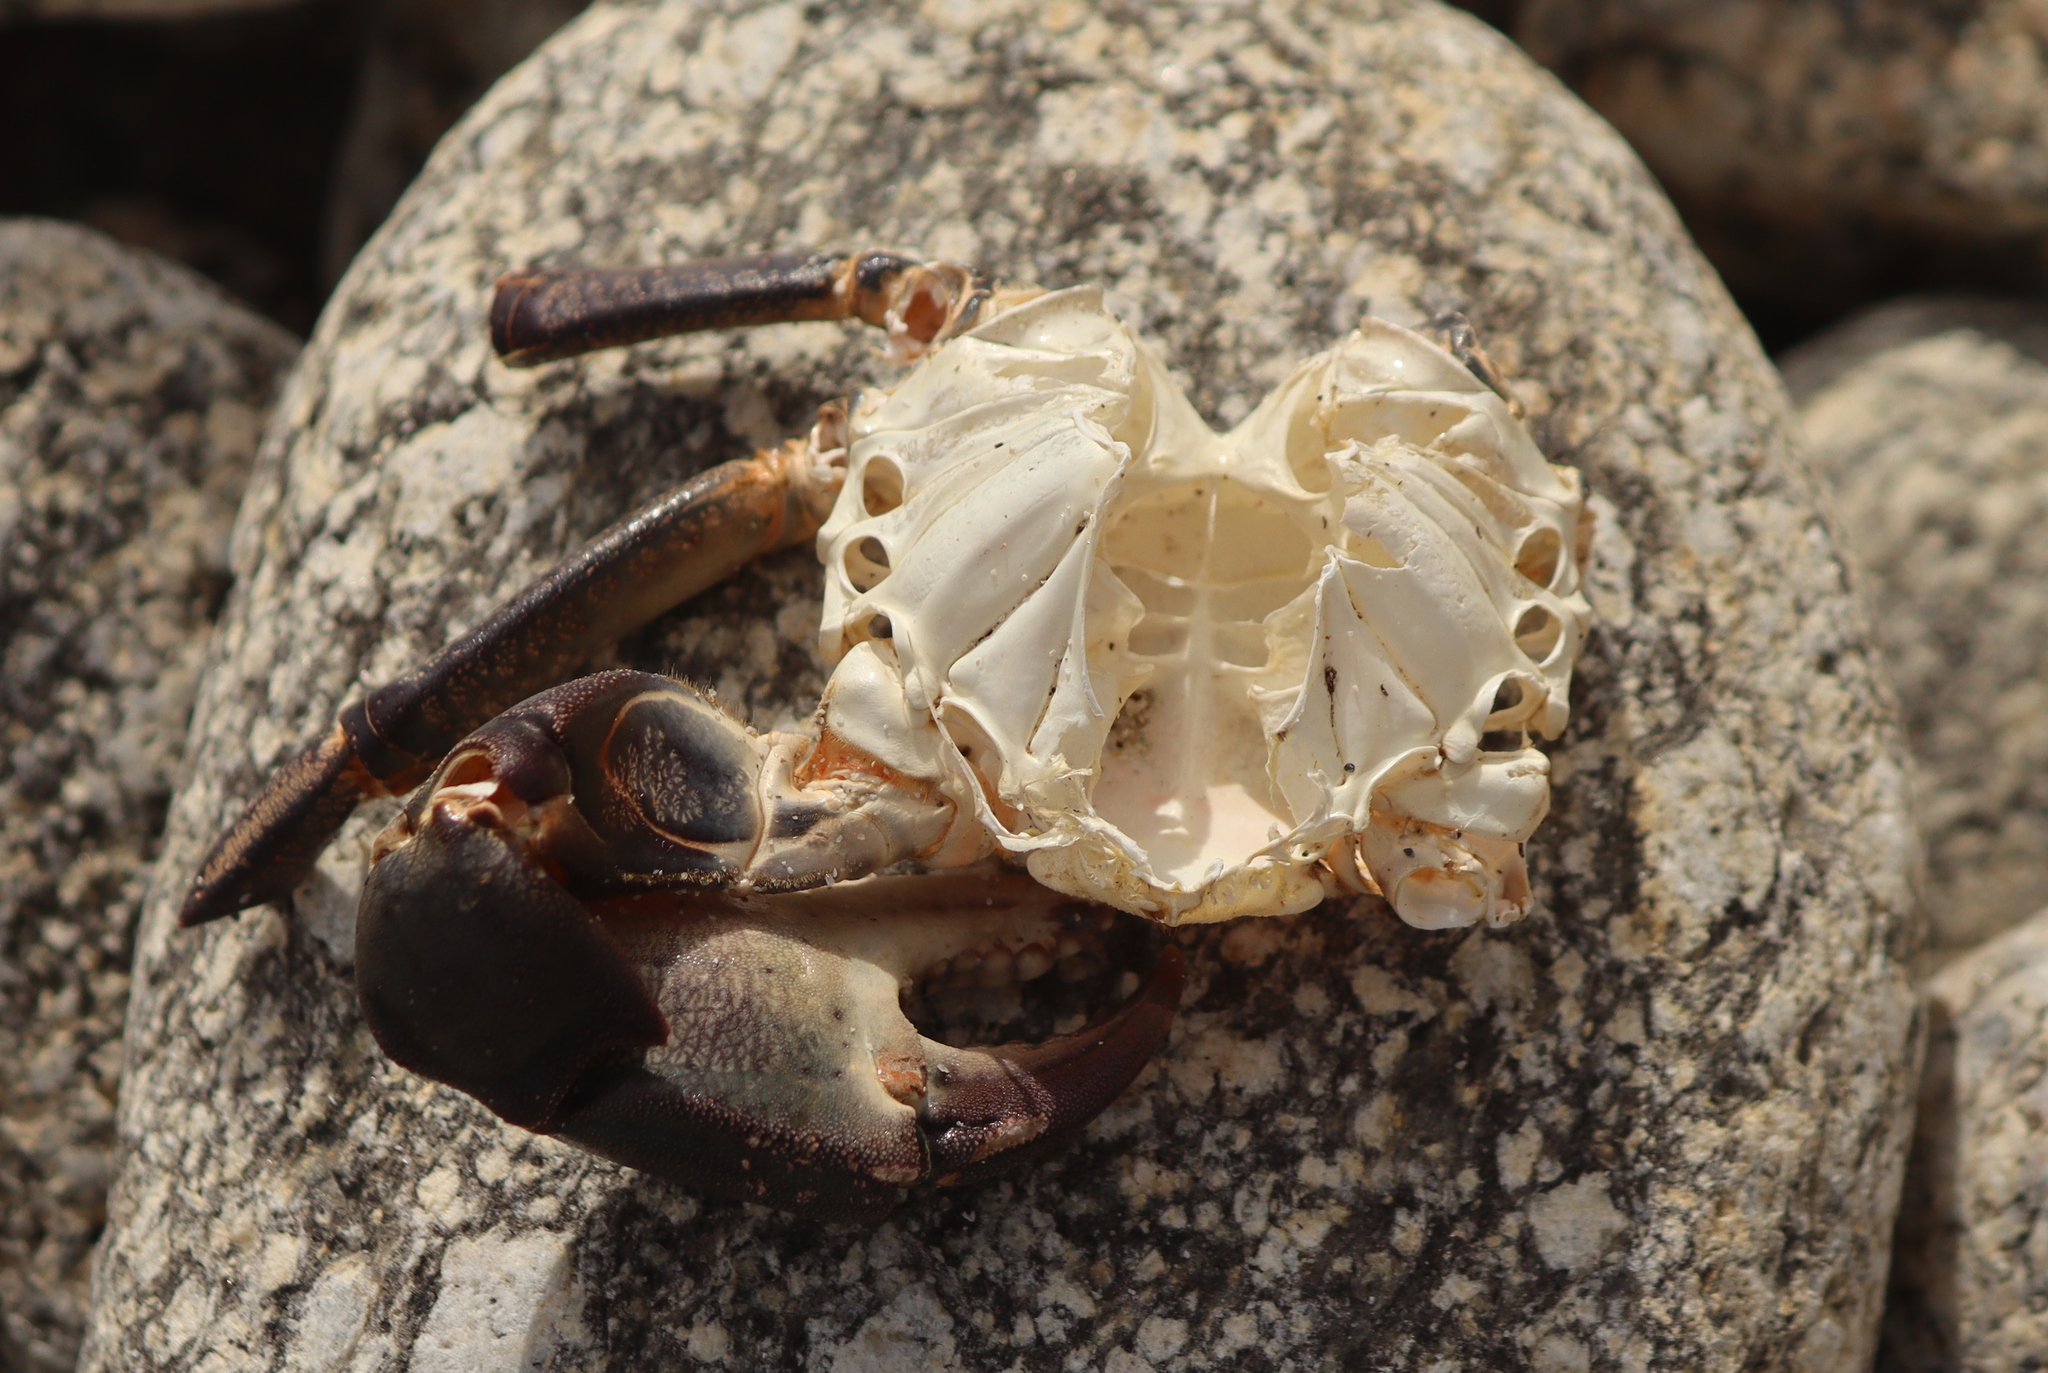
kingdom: Animalia
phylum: Arthropoda
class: Malacostraca
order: Decapoda
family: Carcinidae
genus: Carcinus
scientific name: Carcinus maenas
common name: European green crab
